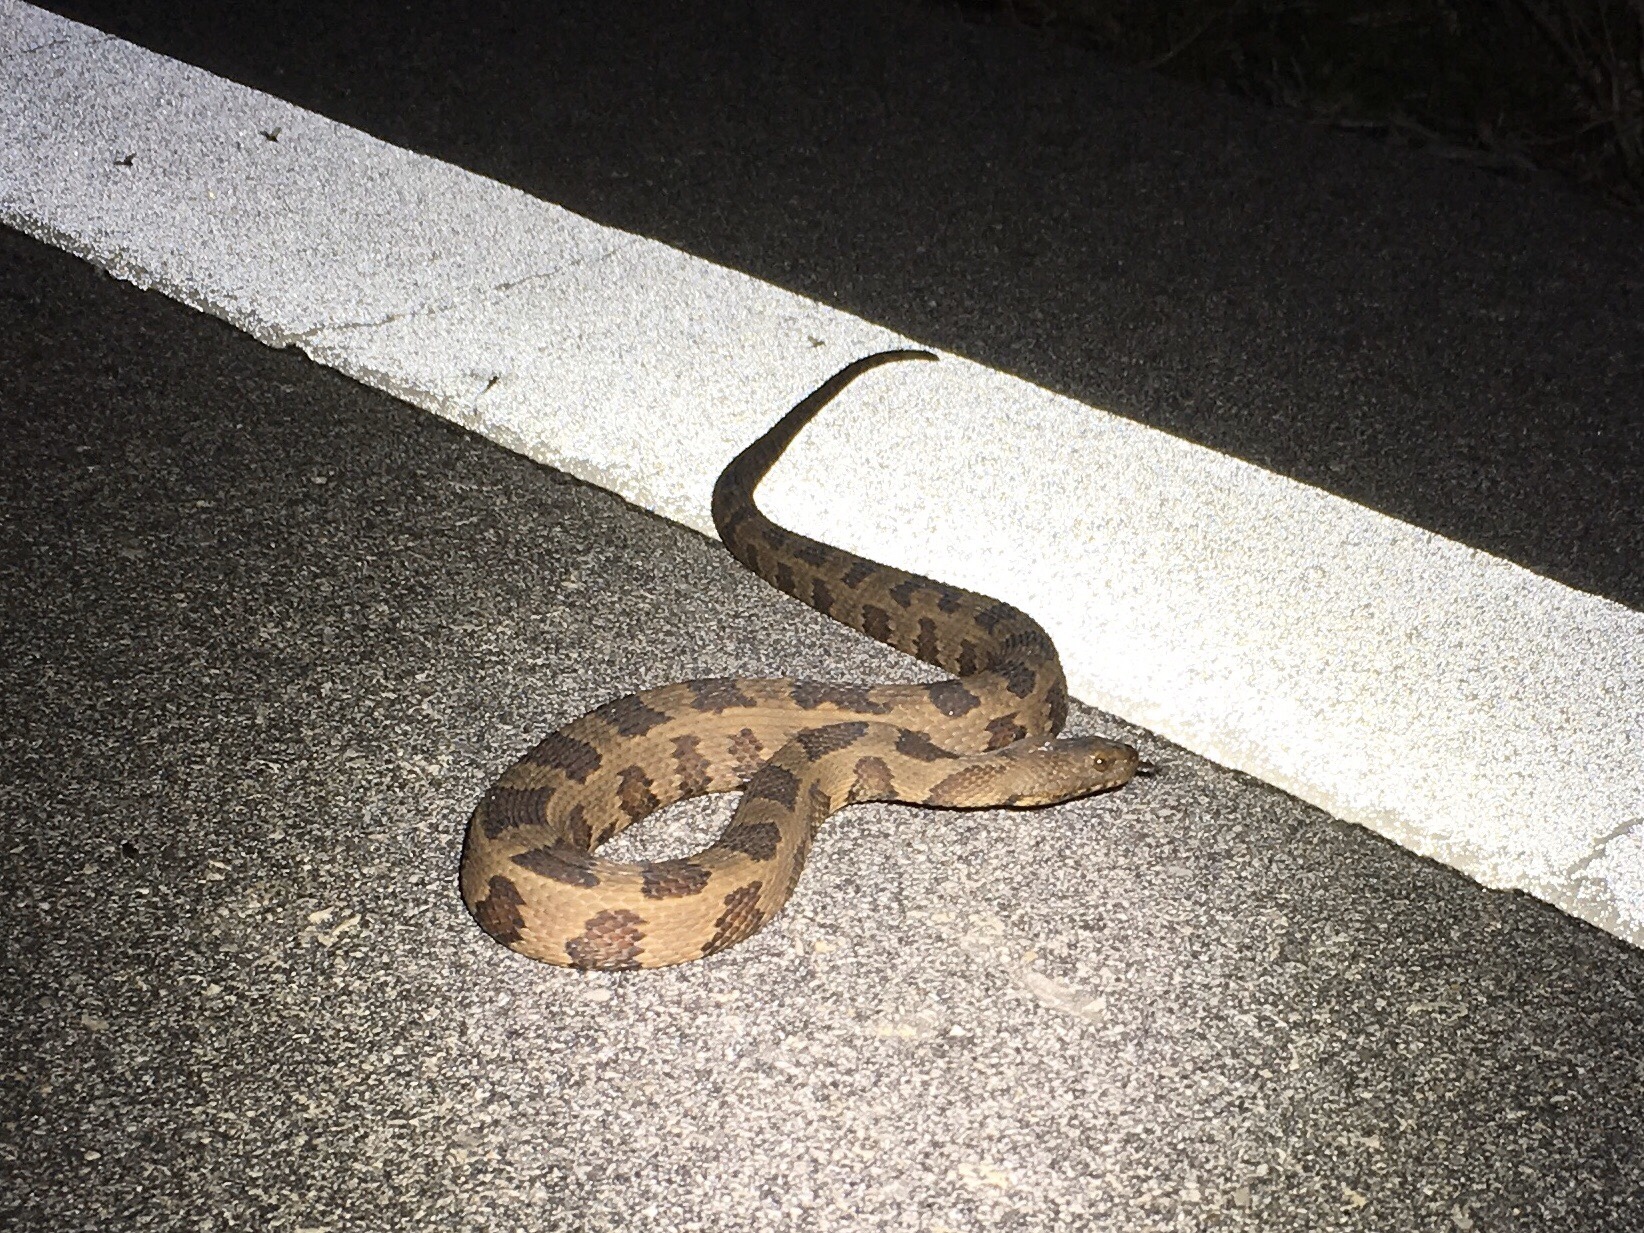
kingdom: Animalia
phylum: Chordata
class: Squamata
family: Colubridae
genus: Nerodia
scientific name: Nerodia taxispilota
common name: Brown water snake
